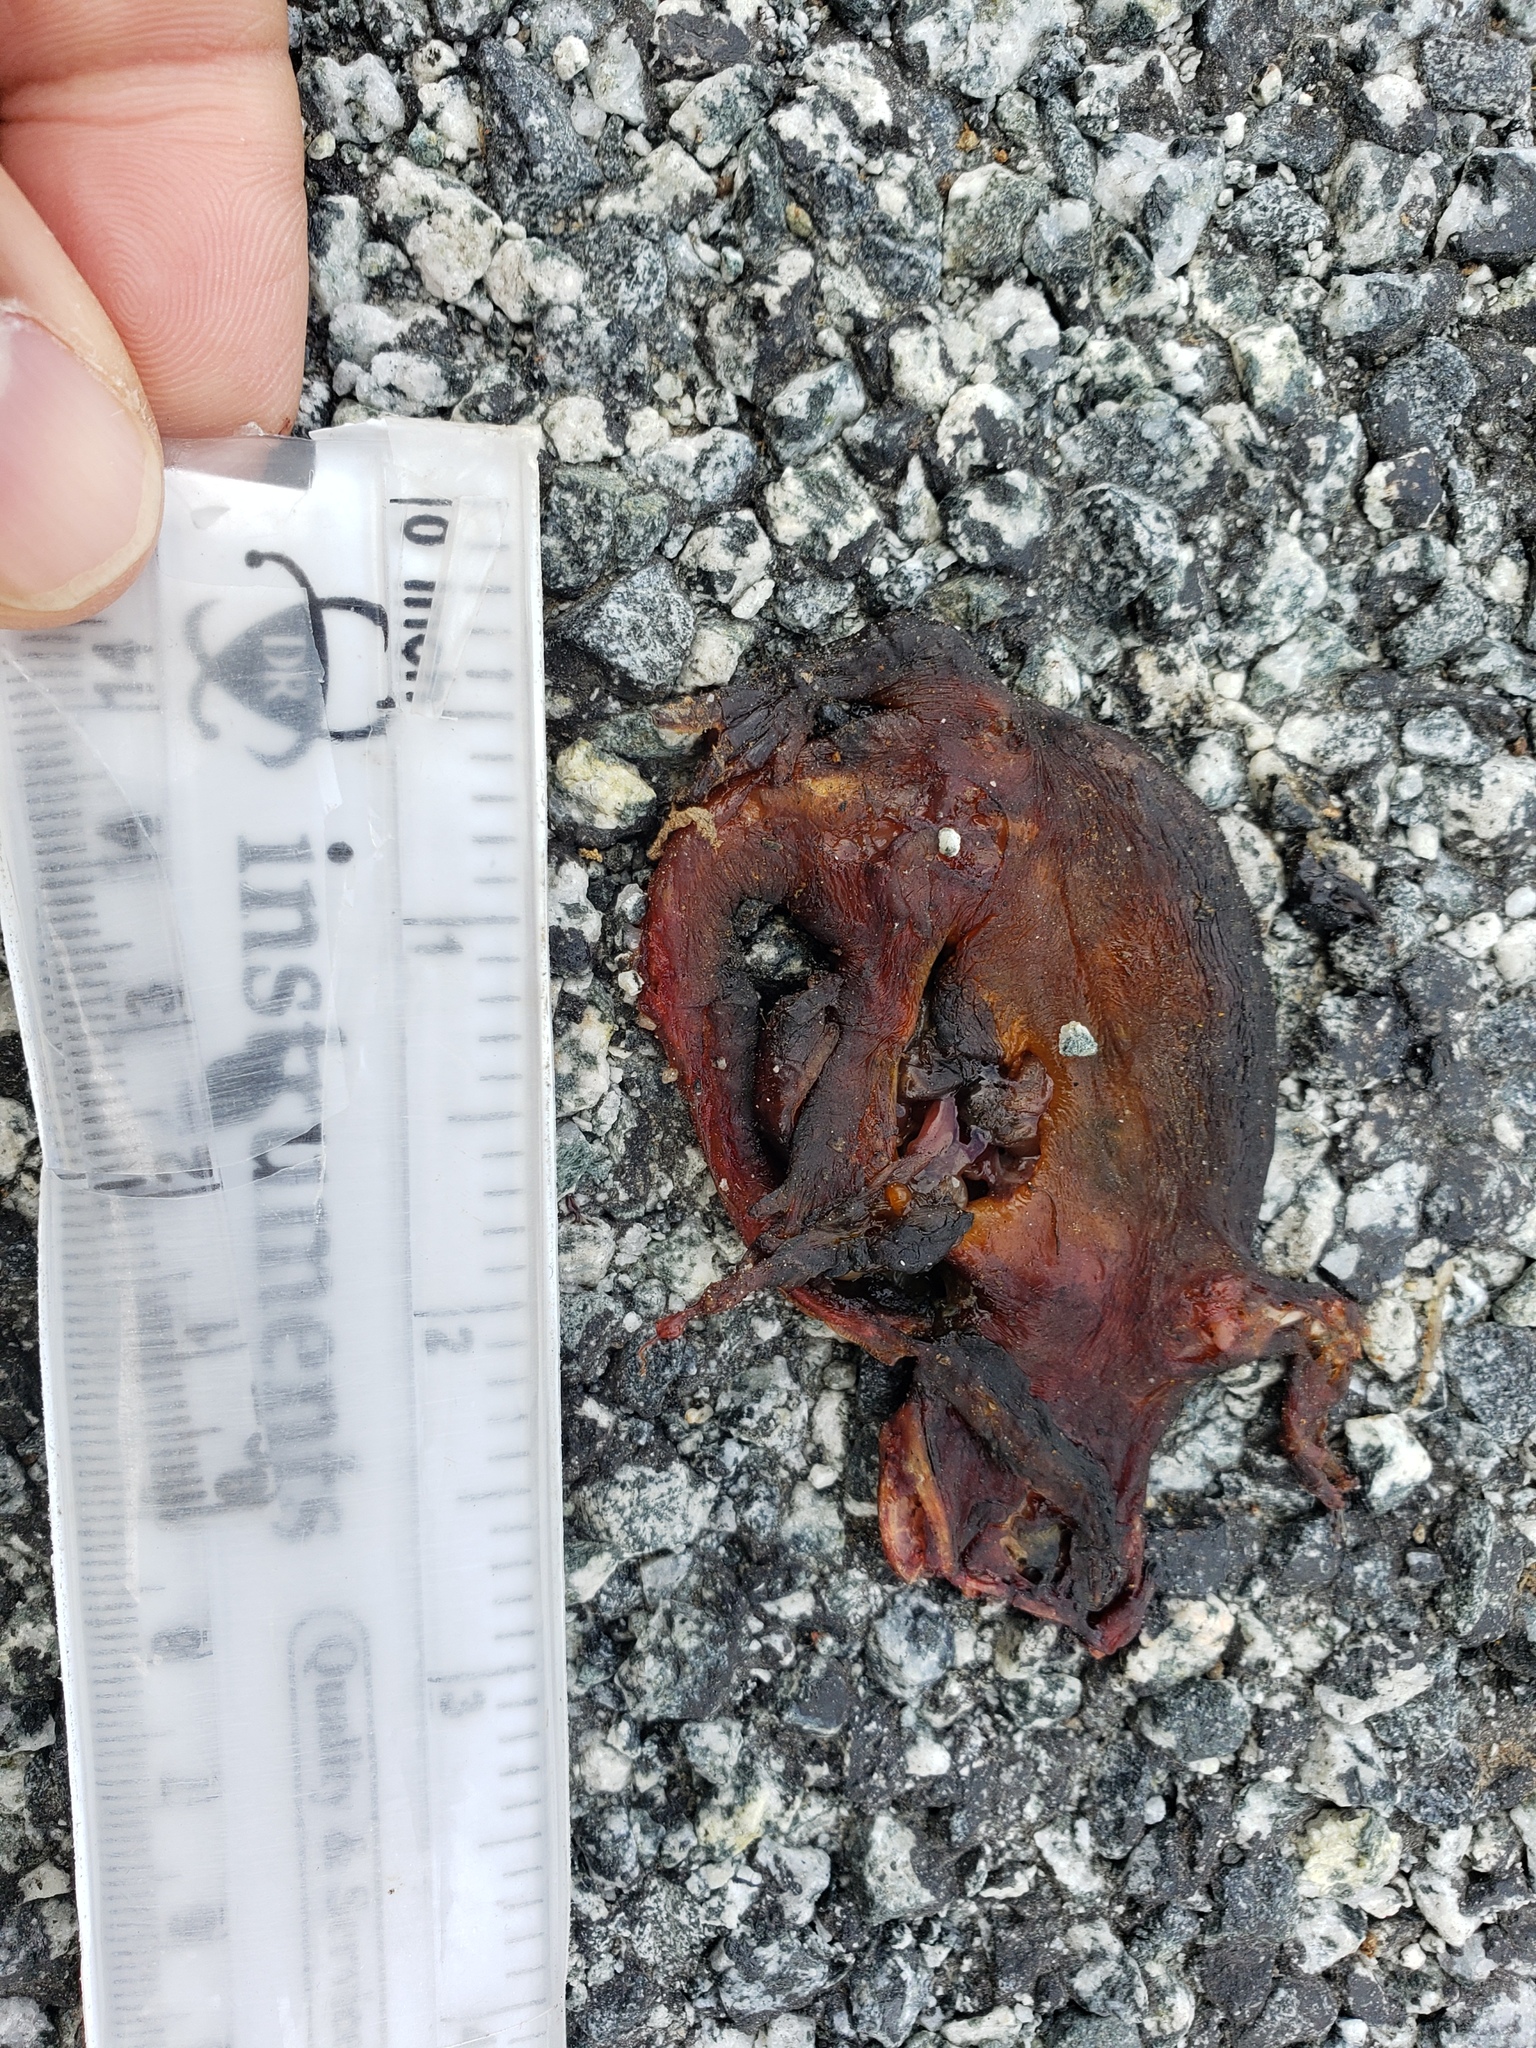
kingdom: Animalia
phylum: Chordata
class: Amphibia
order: Caudata
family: Salamandridae
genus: Taricha
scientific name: Taricha
